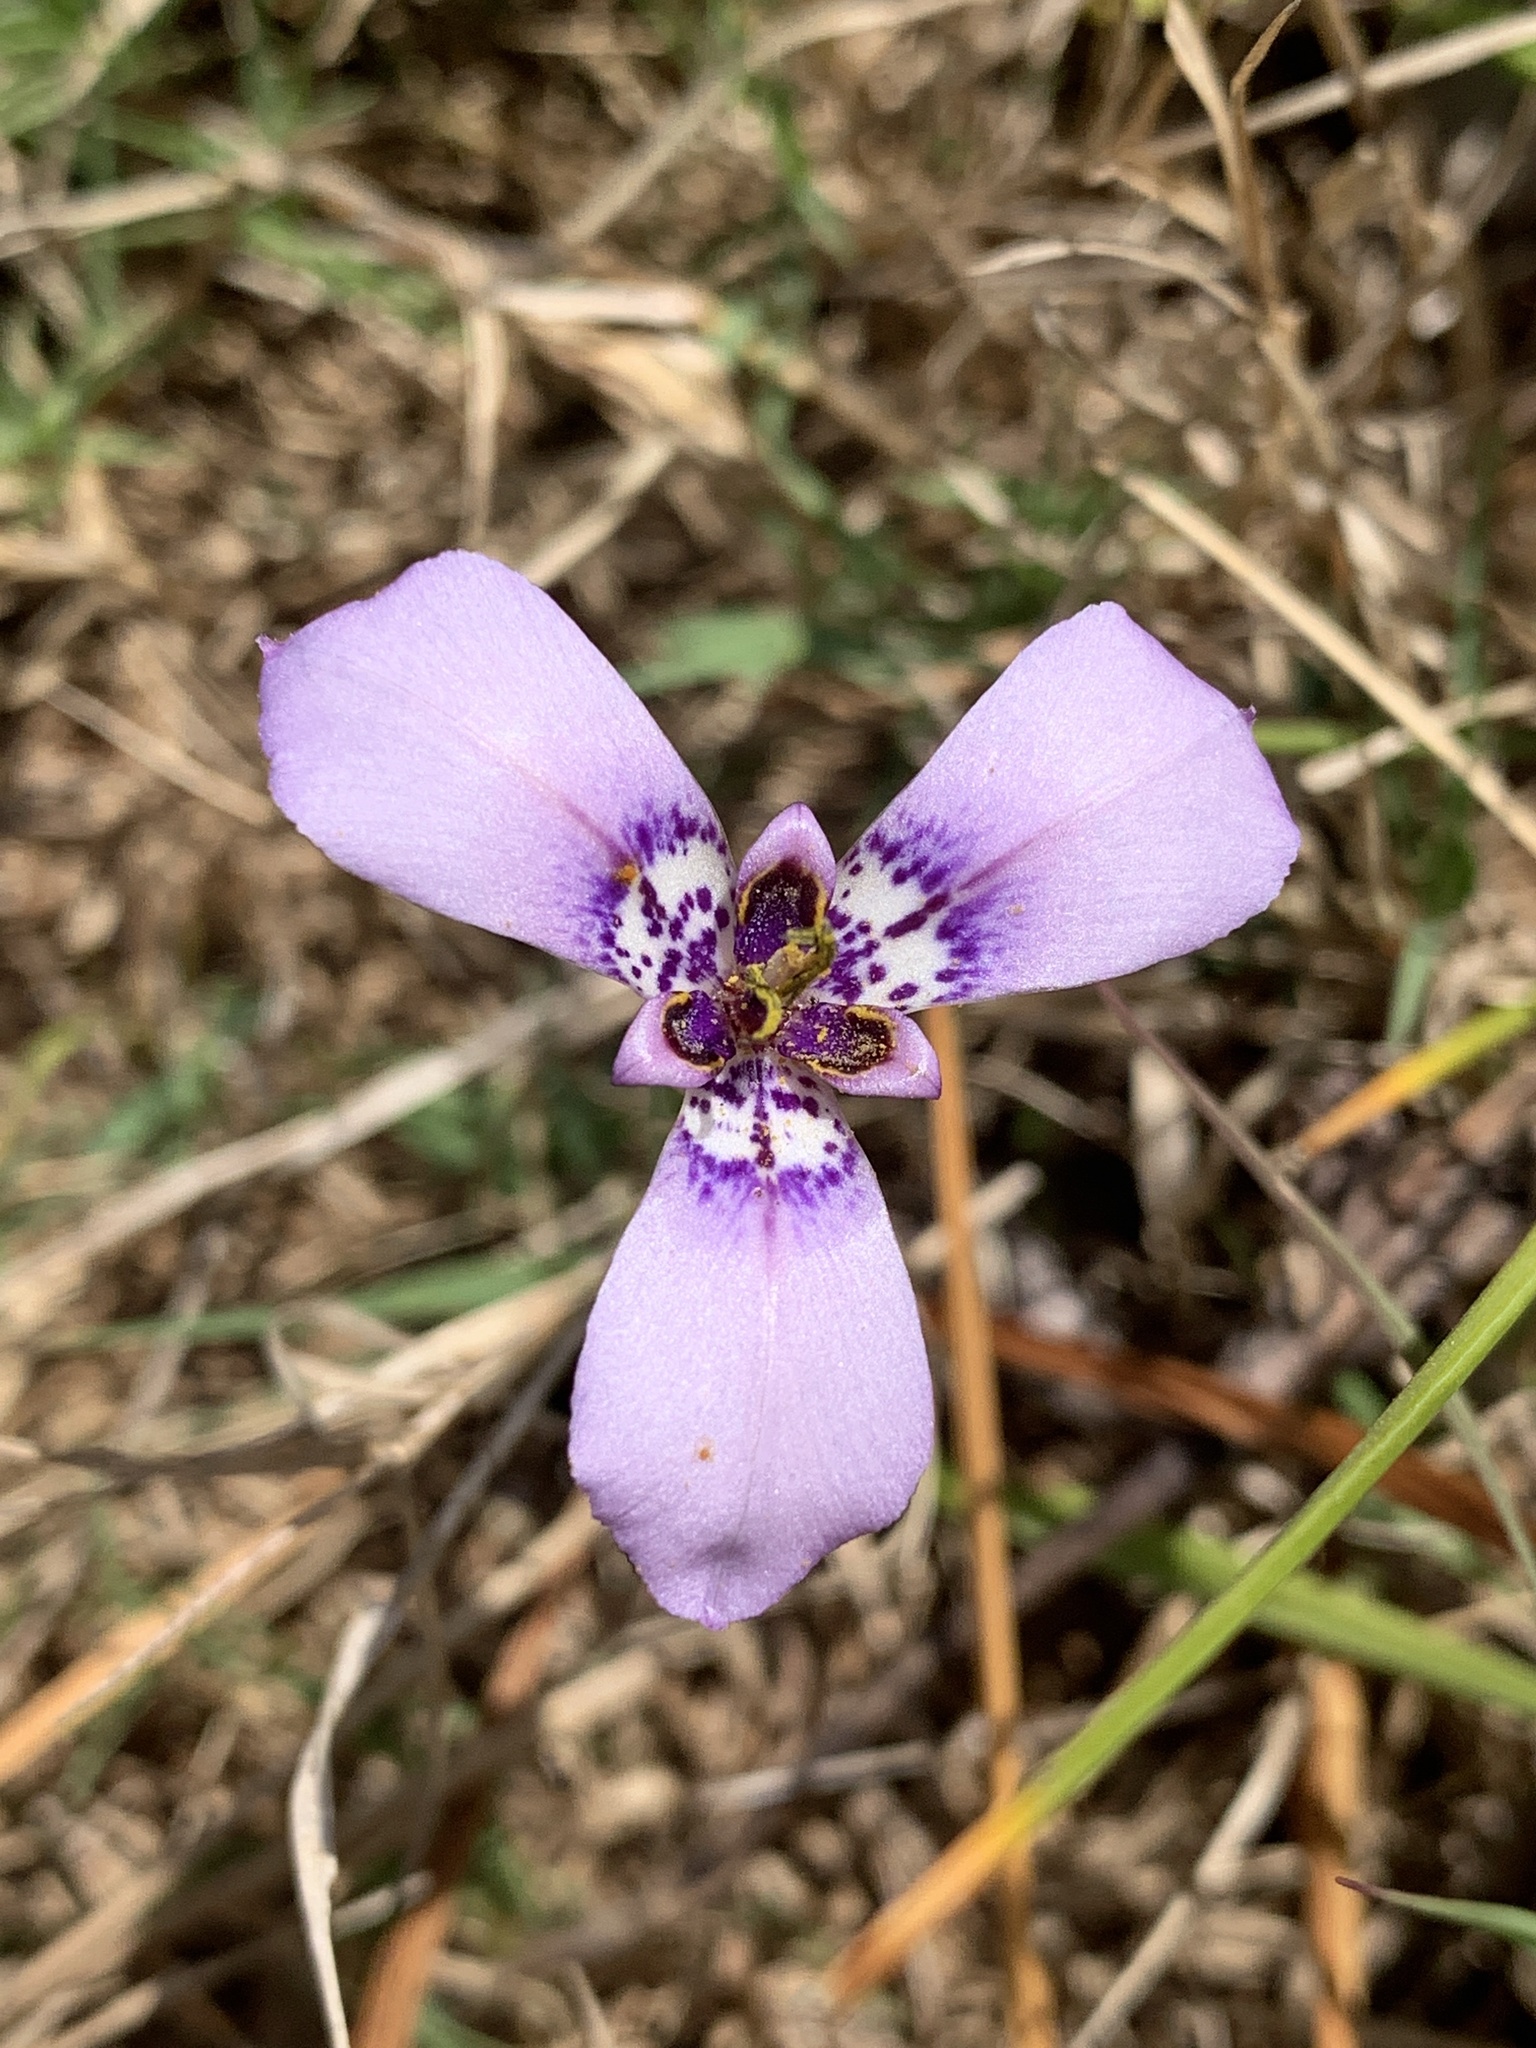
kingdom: Plantae
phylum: Tracheophyta
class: Liliopsida
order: Asparagales
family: Iridaceae
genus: Herbertia
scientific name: Herbertia lahue
